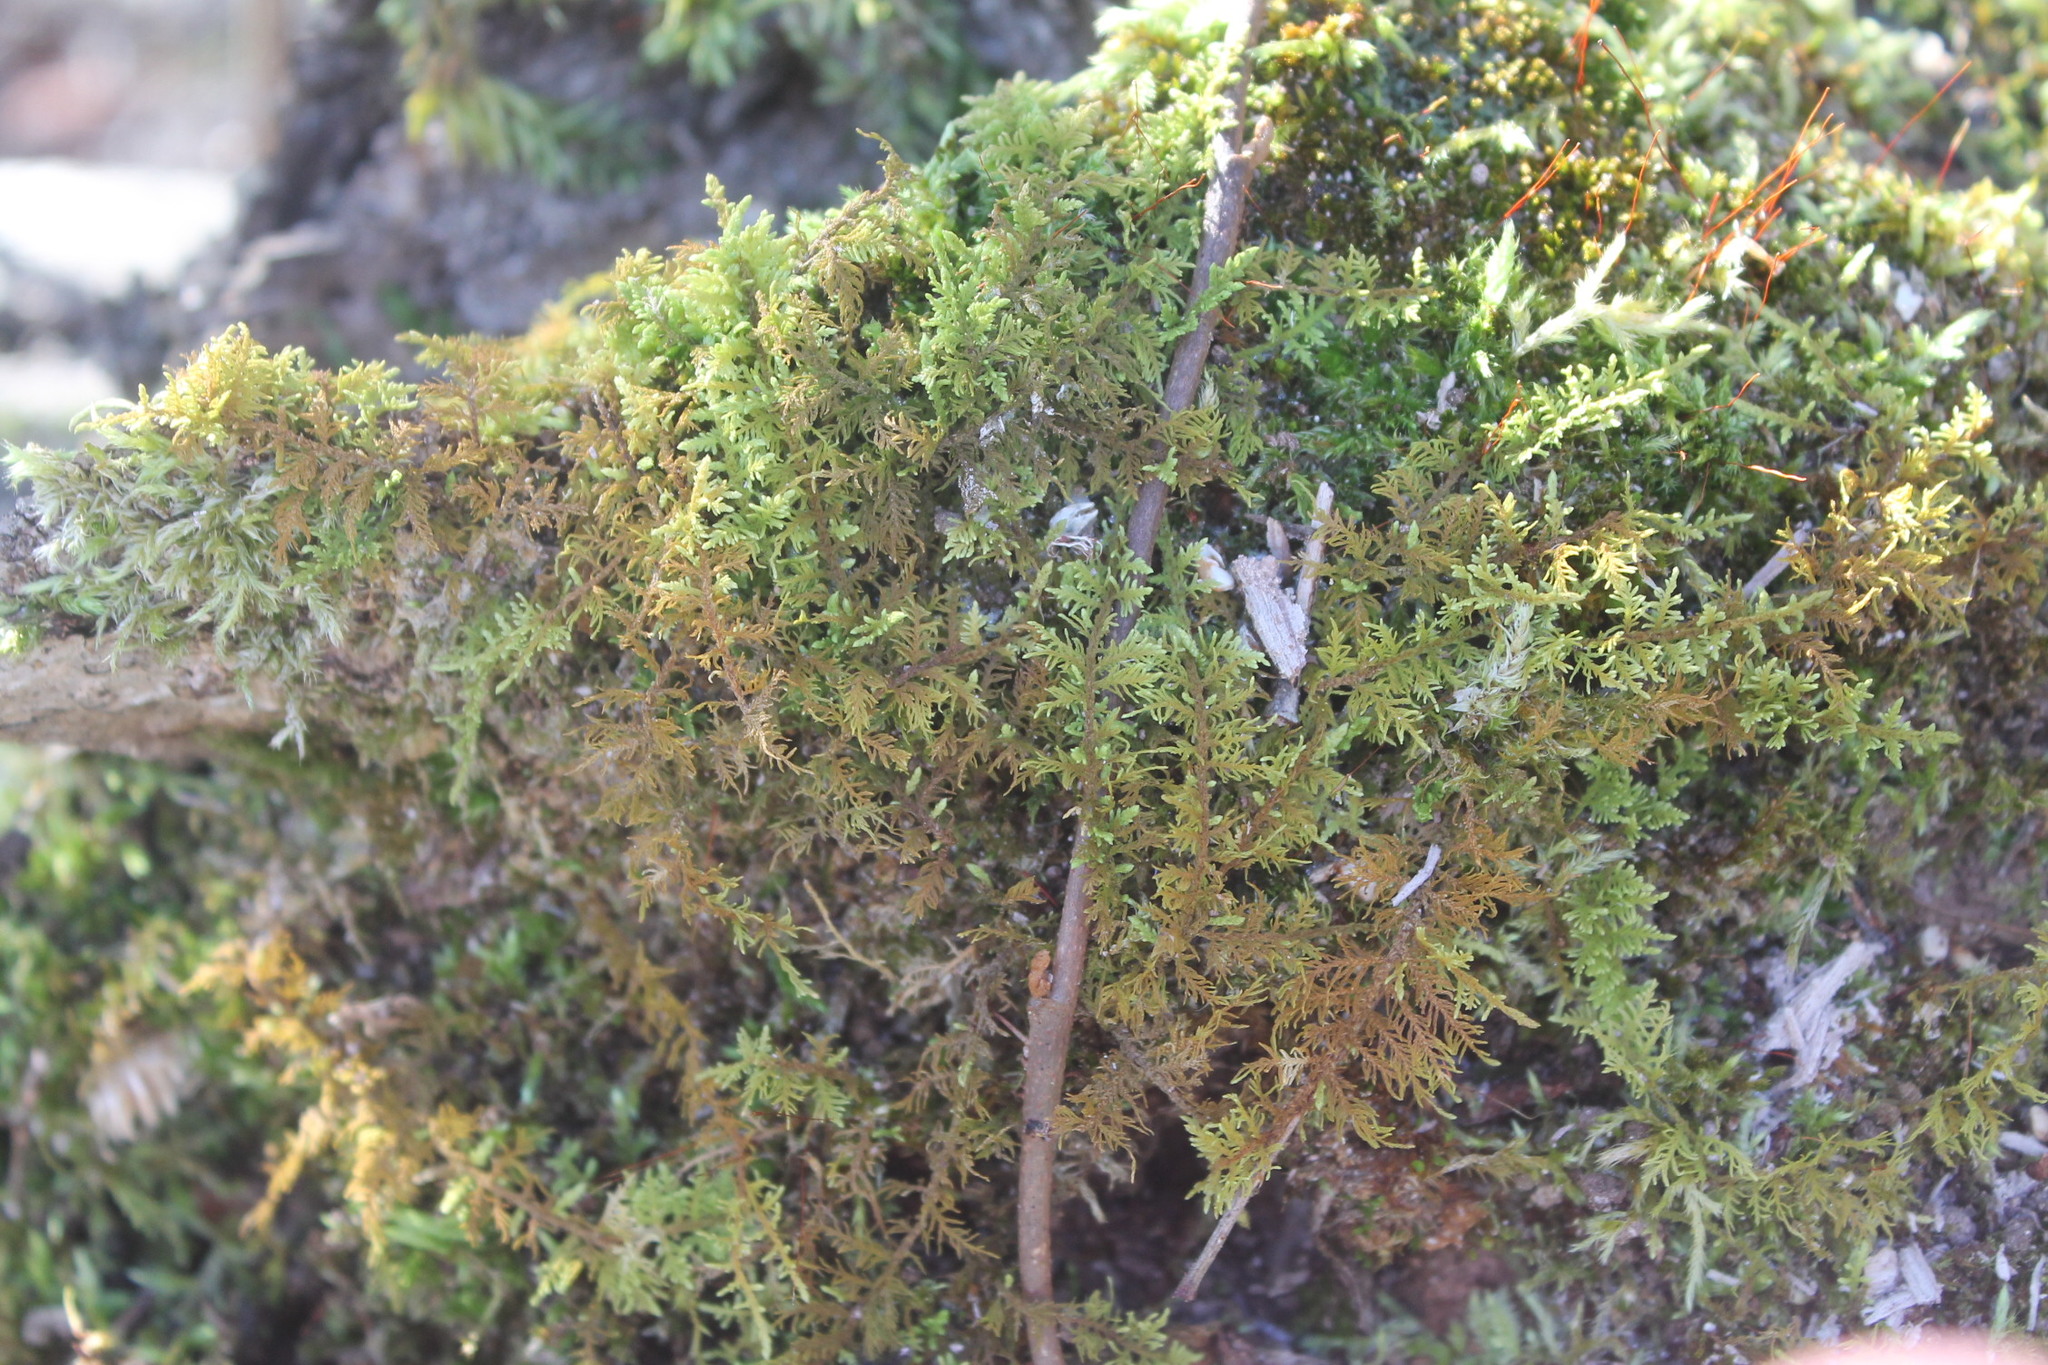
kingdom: Plantae
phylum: Bryophyta
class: Bryopsida
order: Hypnales
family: Thuidiaceae
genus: Thuidium
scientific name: Thuidium delicatulum
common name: Delicate fern moss
